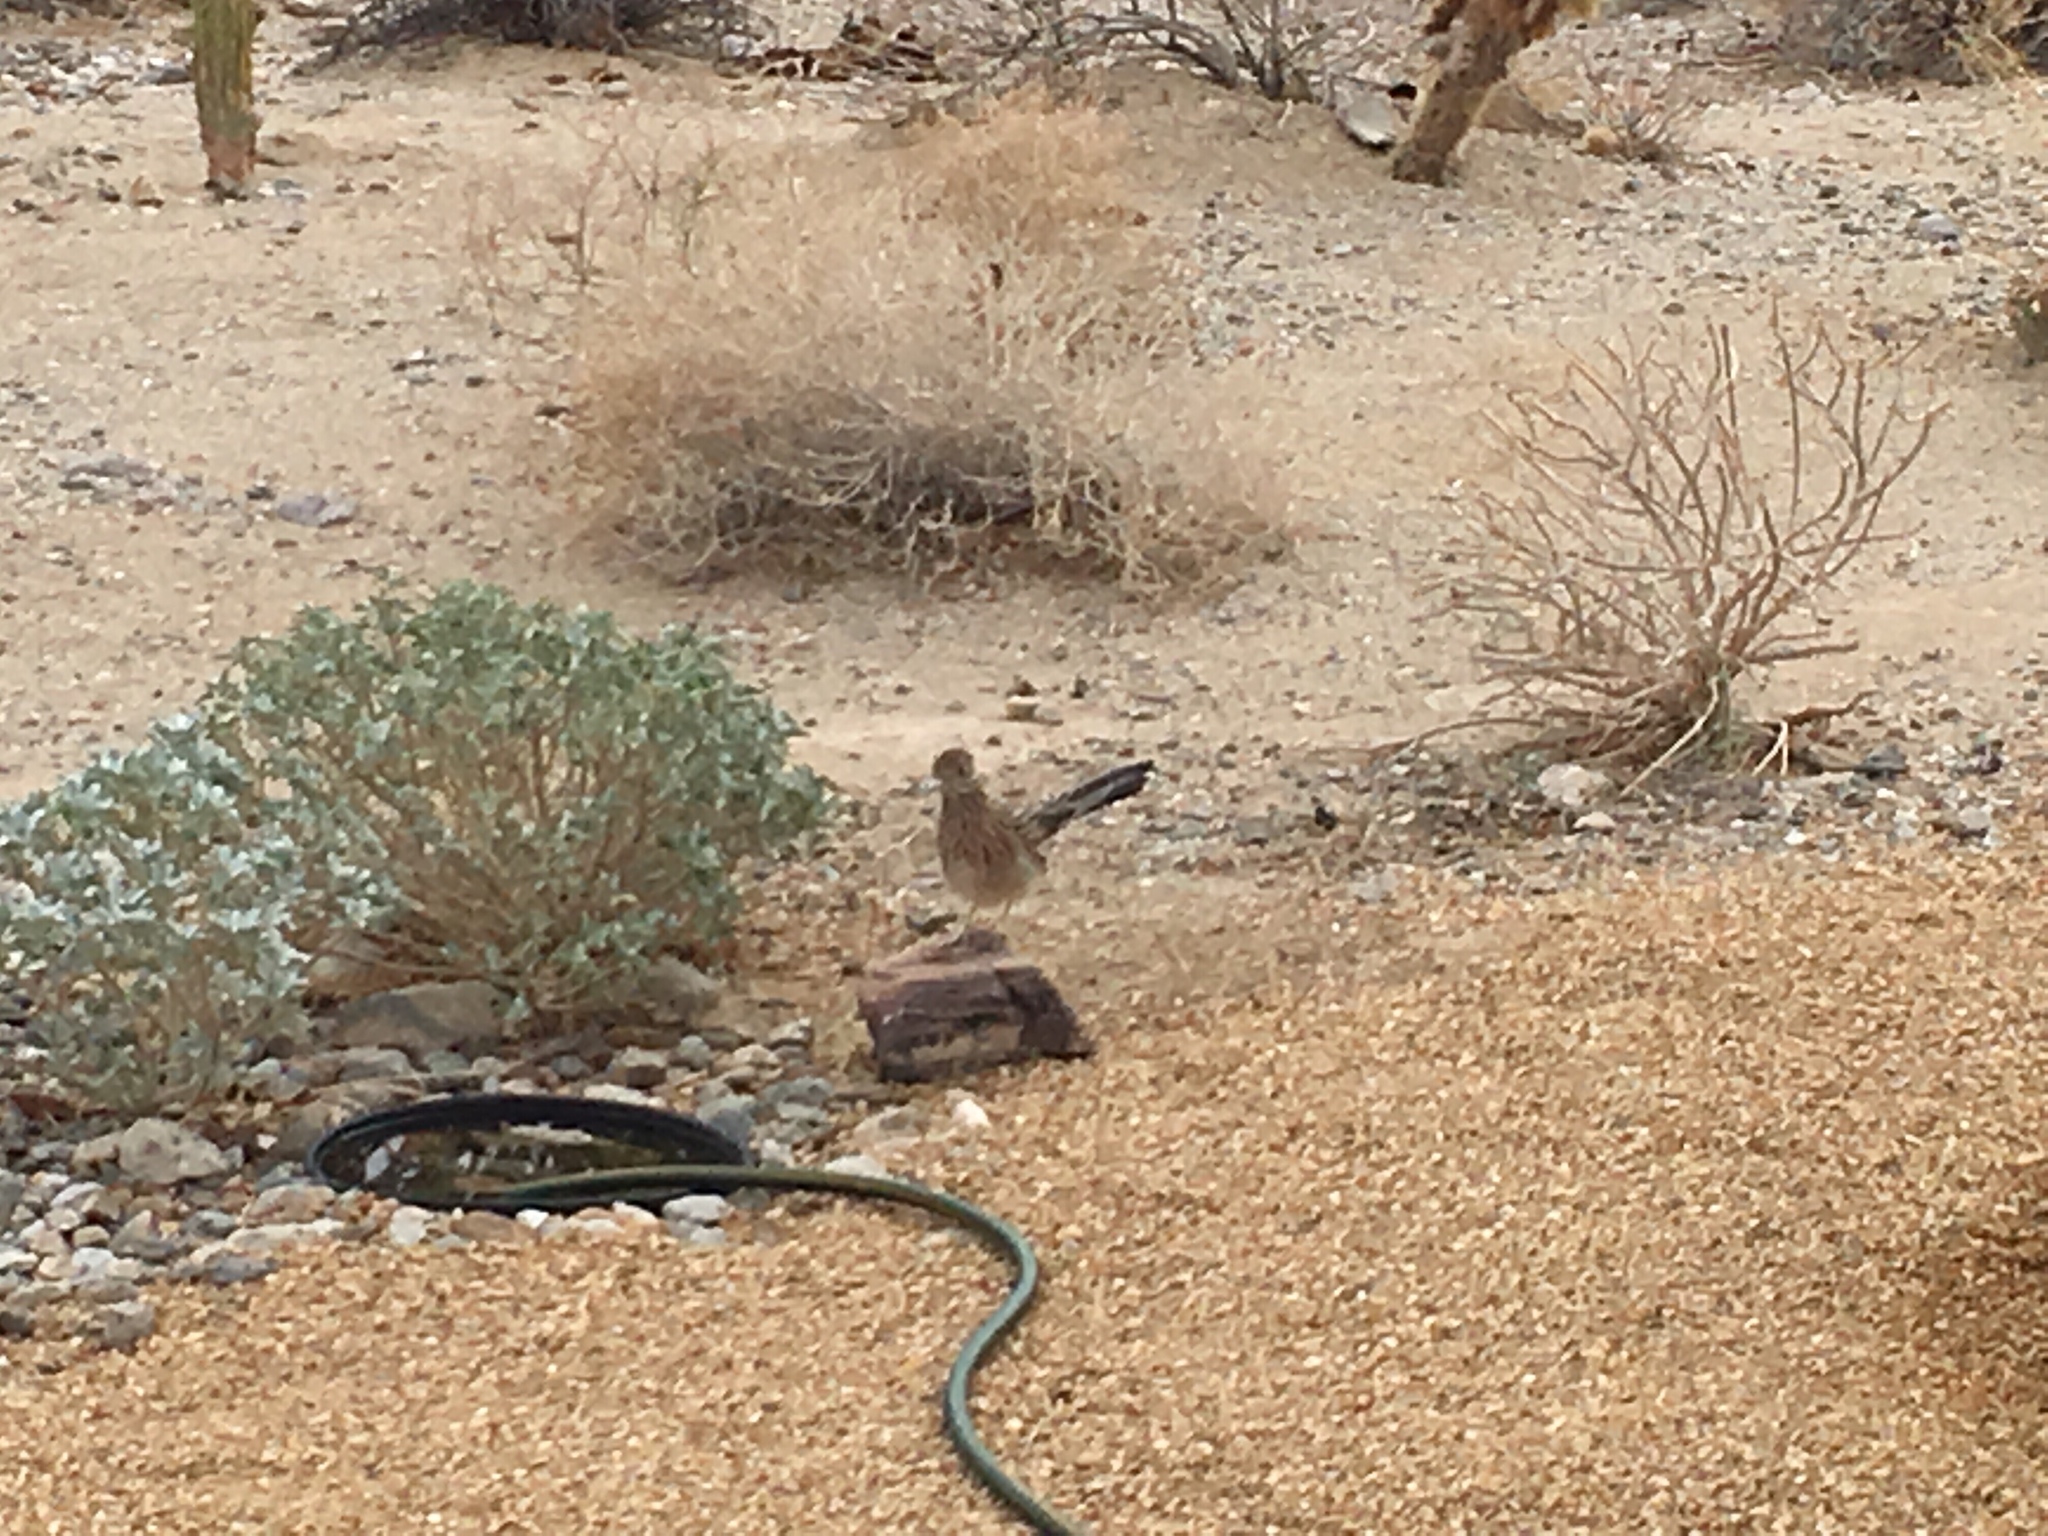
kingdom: Animalia
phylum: Chordata
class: Aves
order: Cuculiformes
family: Cuculidae
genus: Geococcyx
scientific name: Geococcyx californianus
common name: Greater roadrunner
